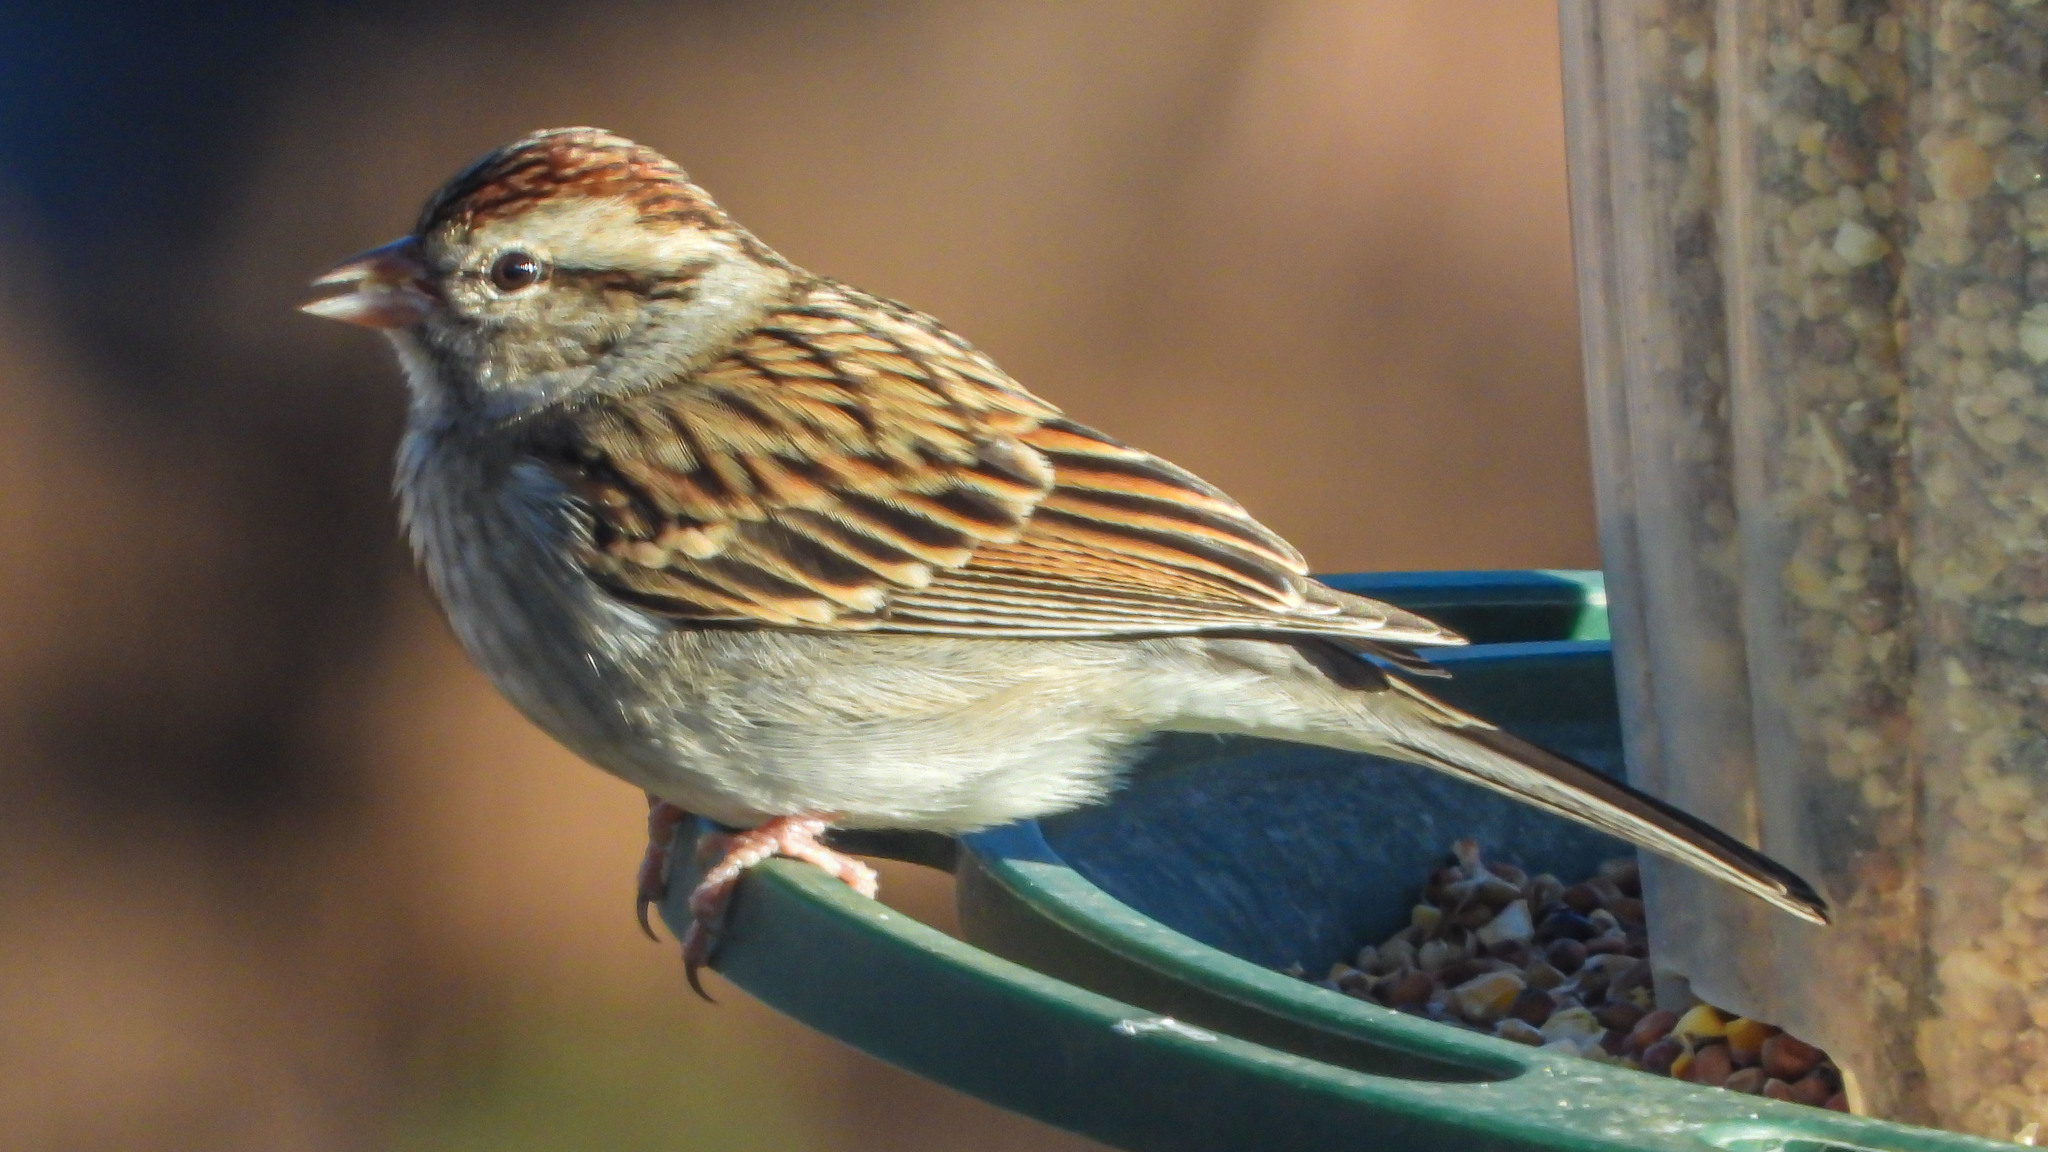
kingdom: Animalia
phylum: Chordata
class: Aves
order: Passeriformes
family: Passerellidae
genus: Spizella
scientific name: Spizella passerina
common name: Chipping sparrow
